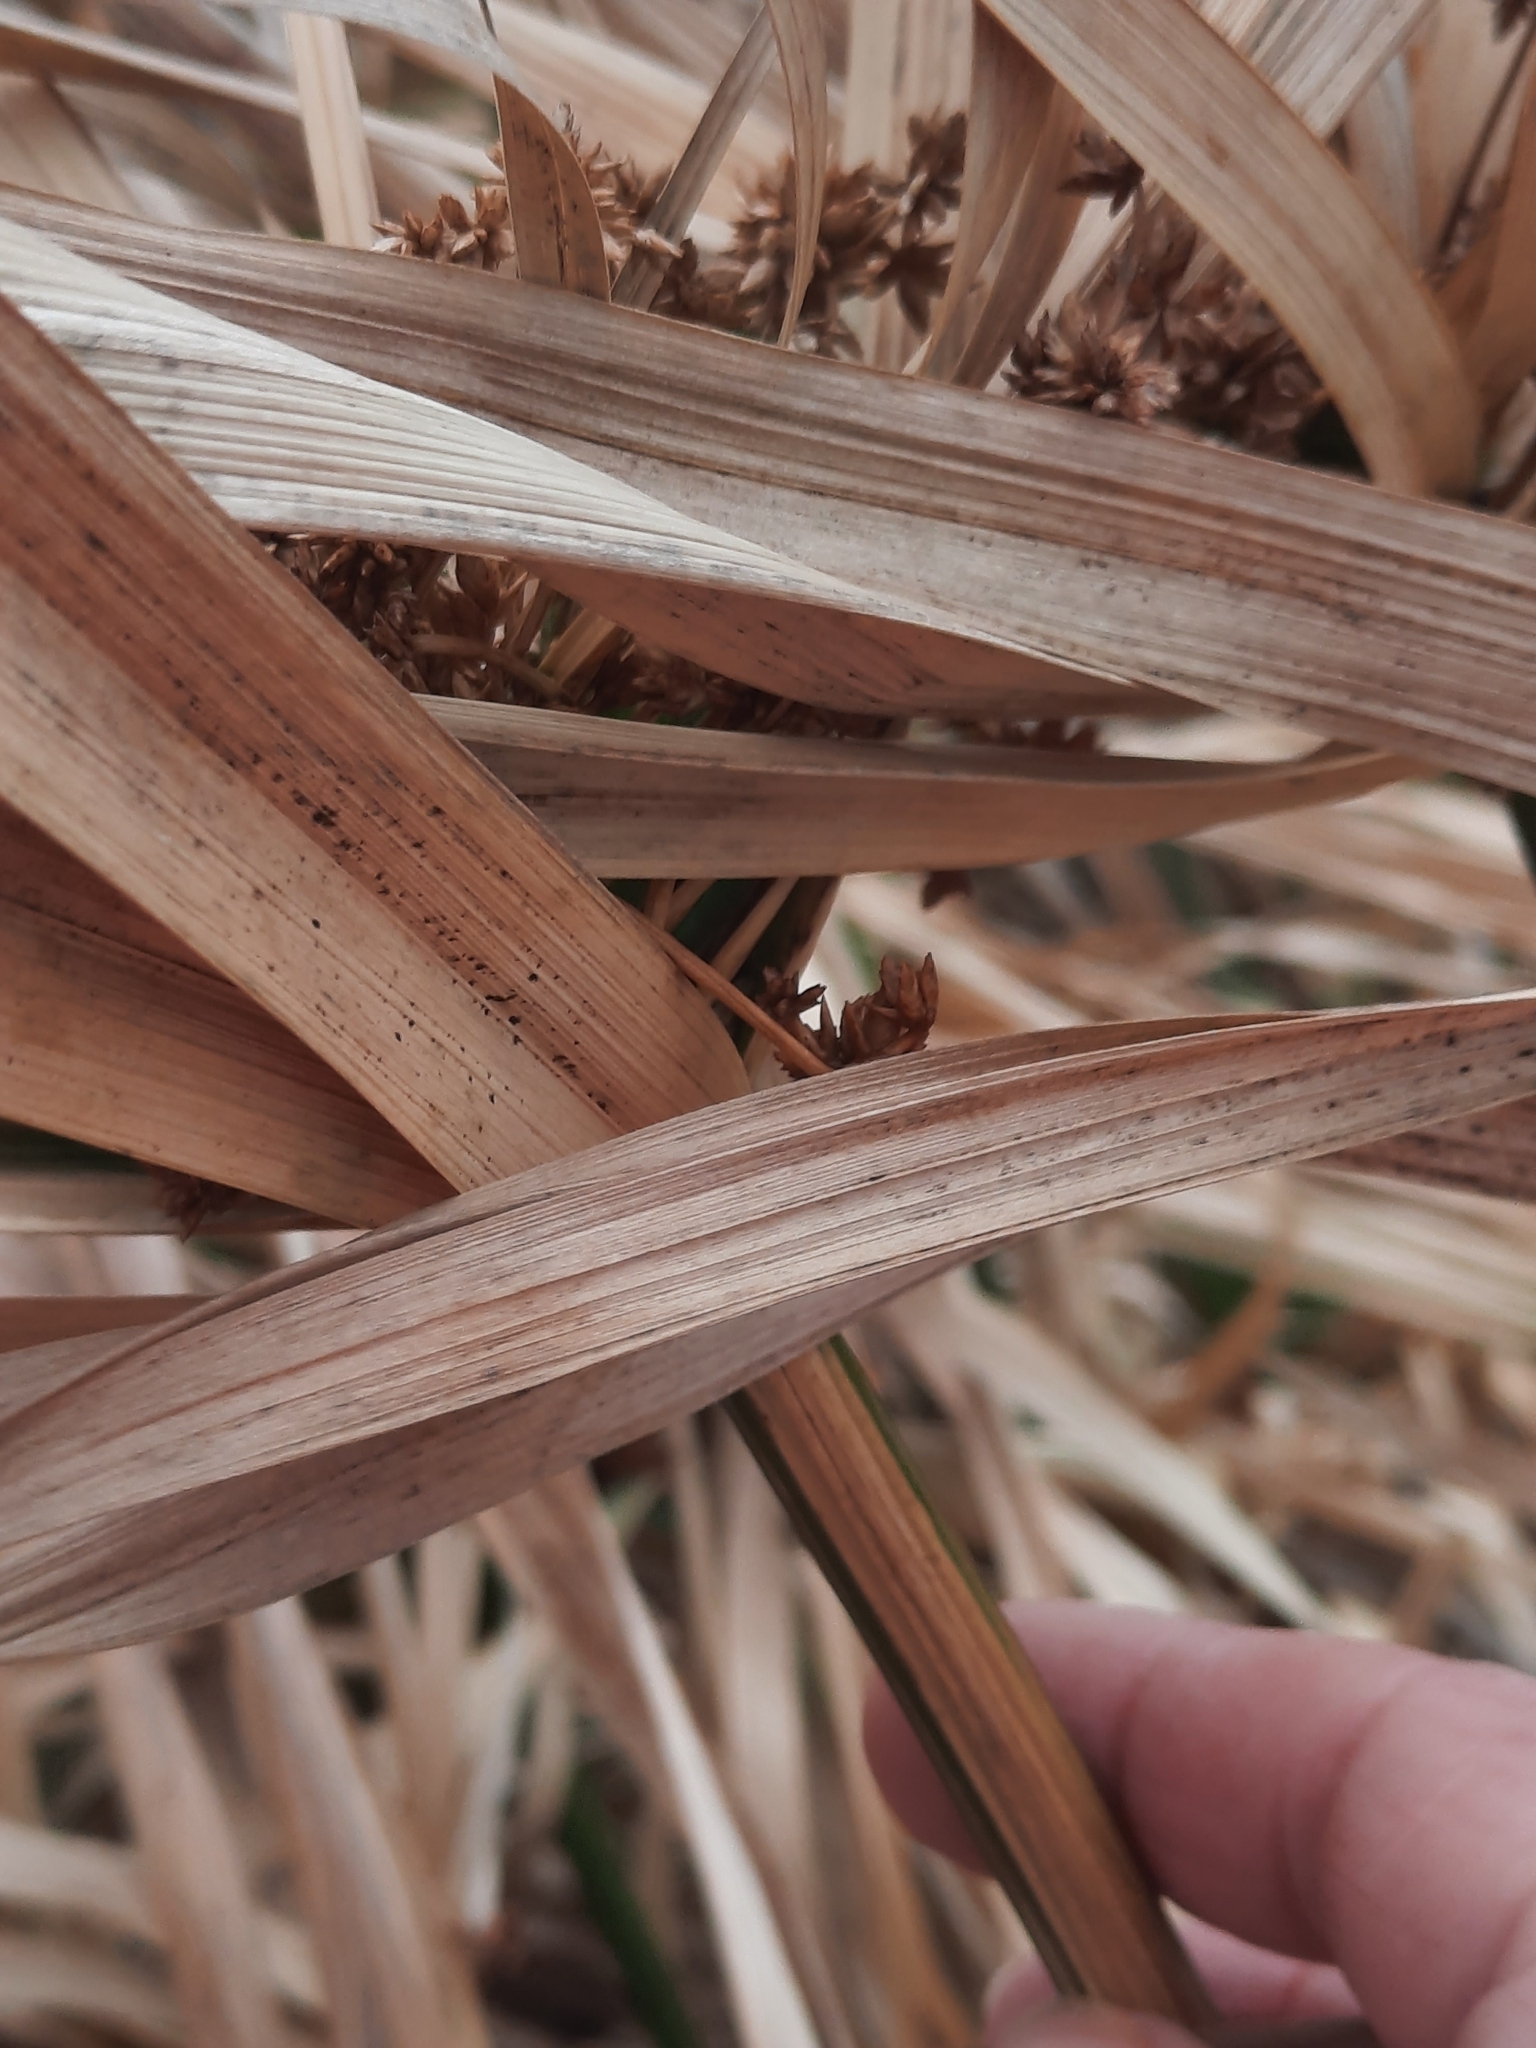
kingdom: Plantae
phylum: Tracheophyta
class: Liliopsida
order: Poales
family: Cyperaceae
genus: Cyperus
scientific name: Cyperus alternifolius
